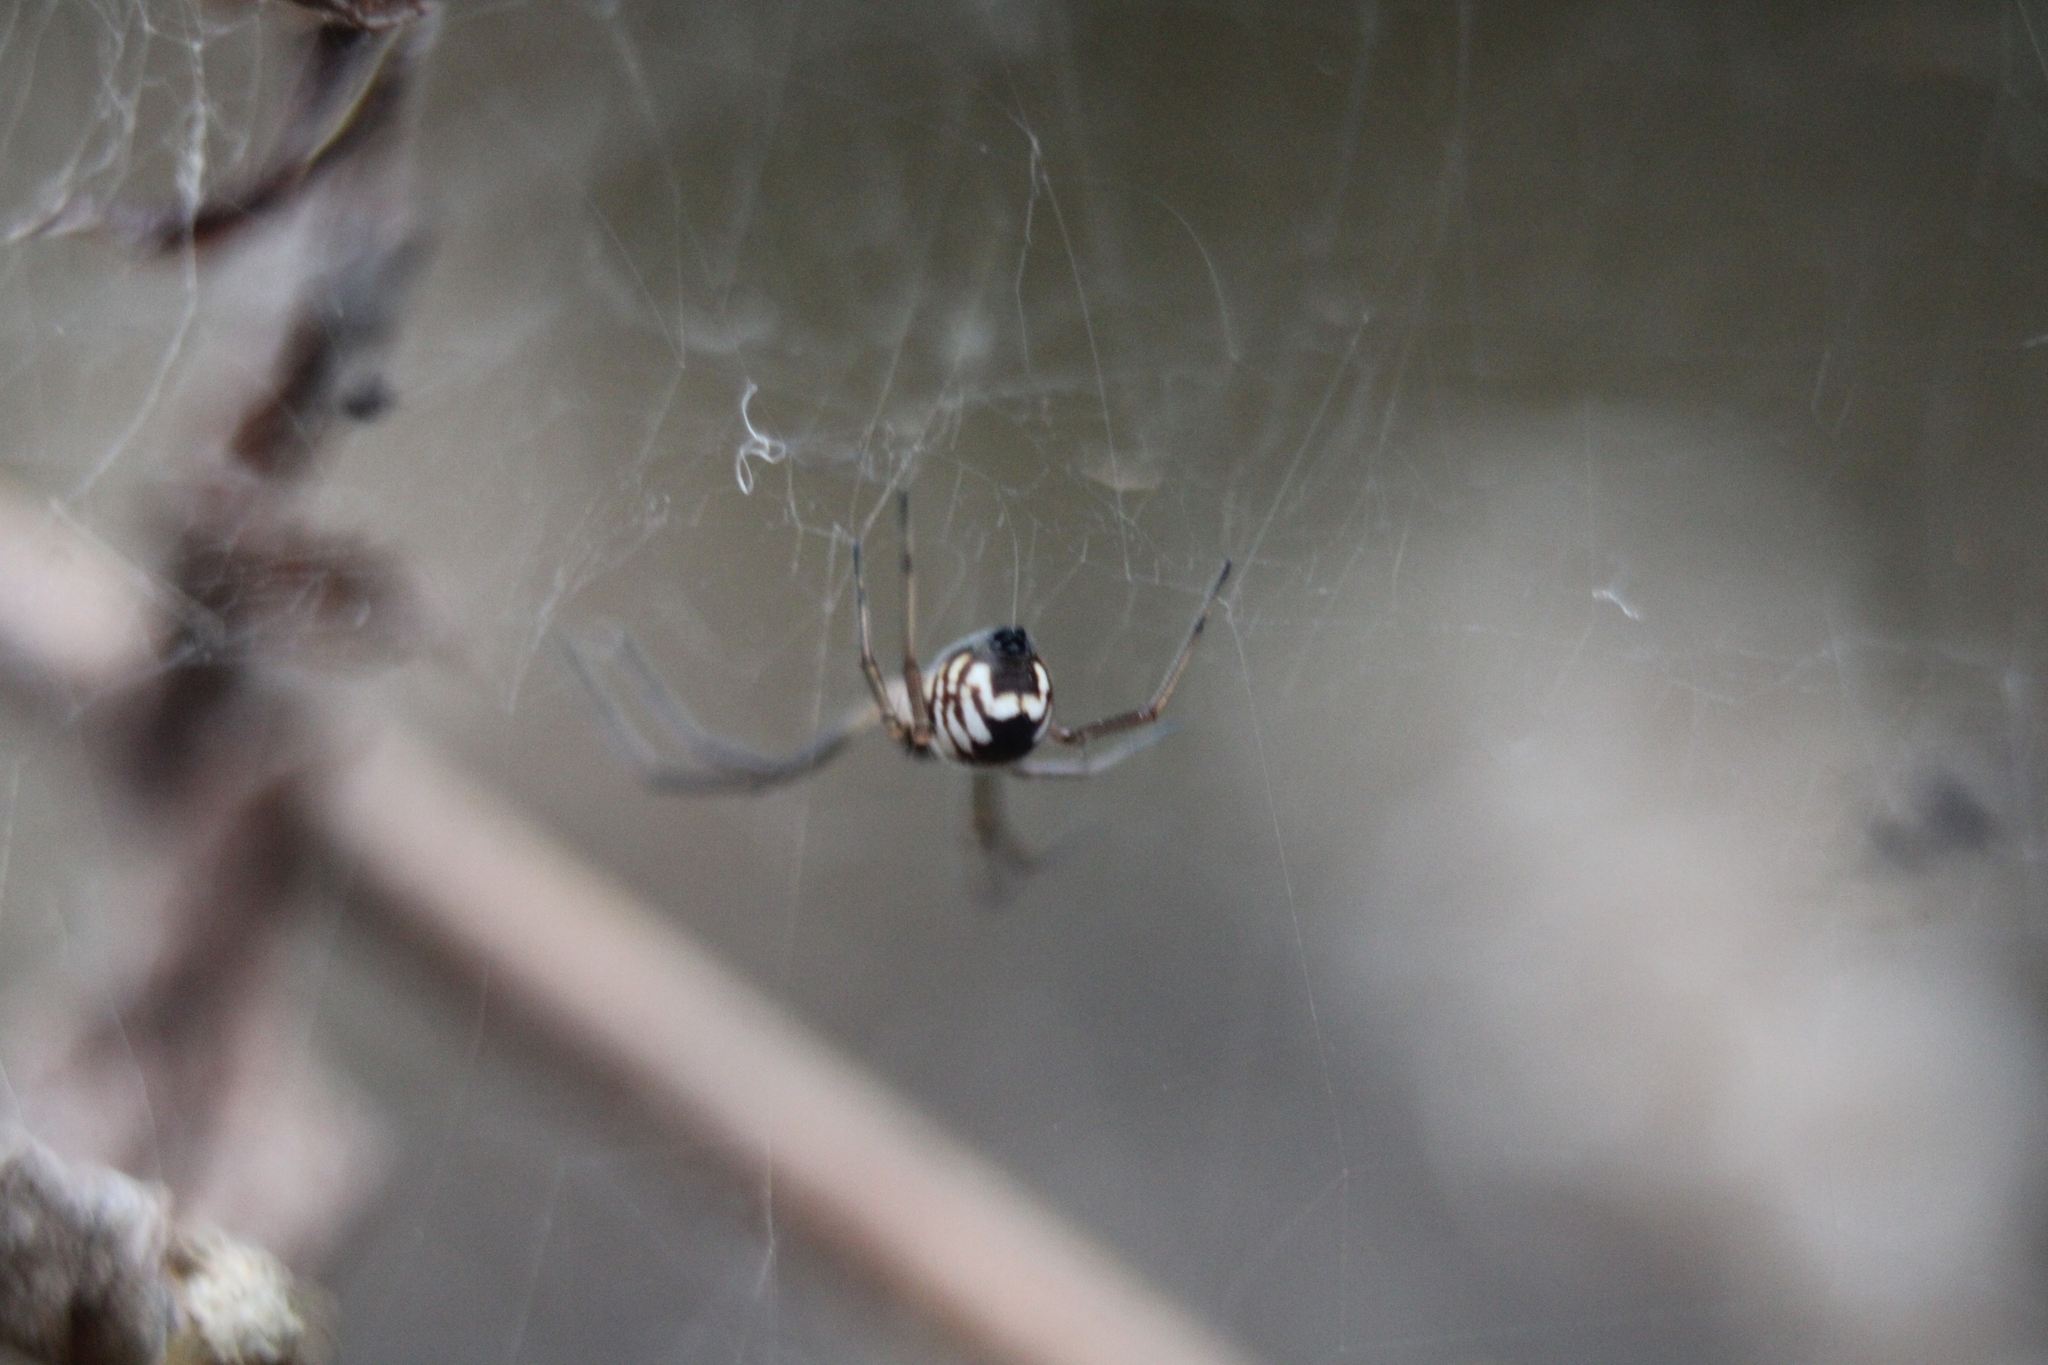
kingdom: Animalia
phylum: Arthropoda
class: Arachnida
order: Araneae
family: Linyphiidae
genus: Frontinella
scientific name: Frontinella pyramitela
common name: Bowl-and-doily spider
